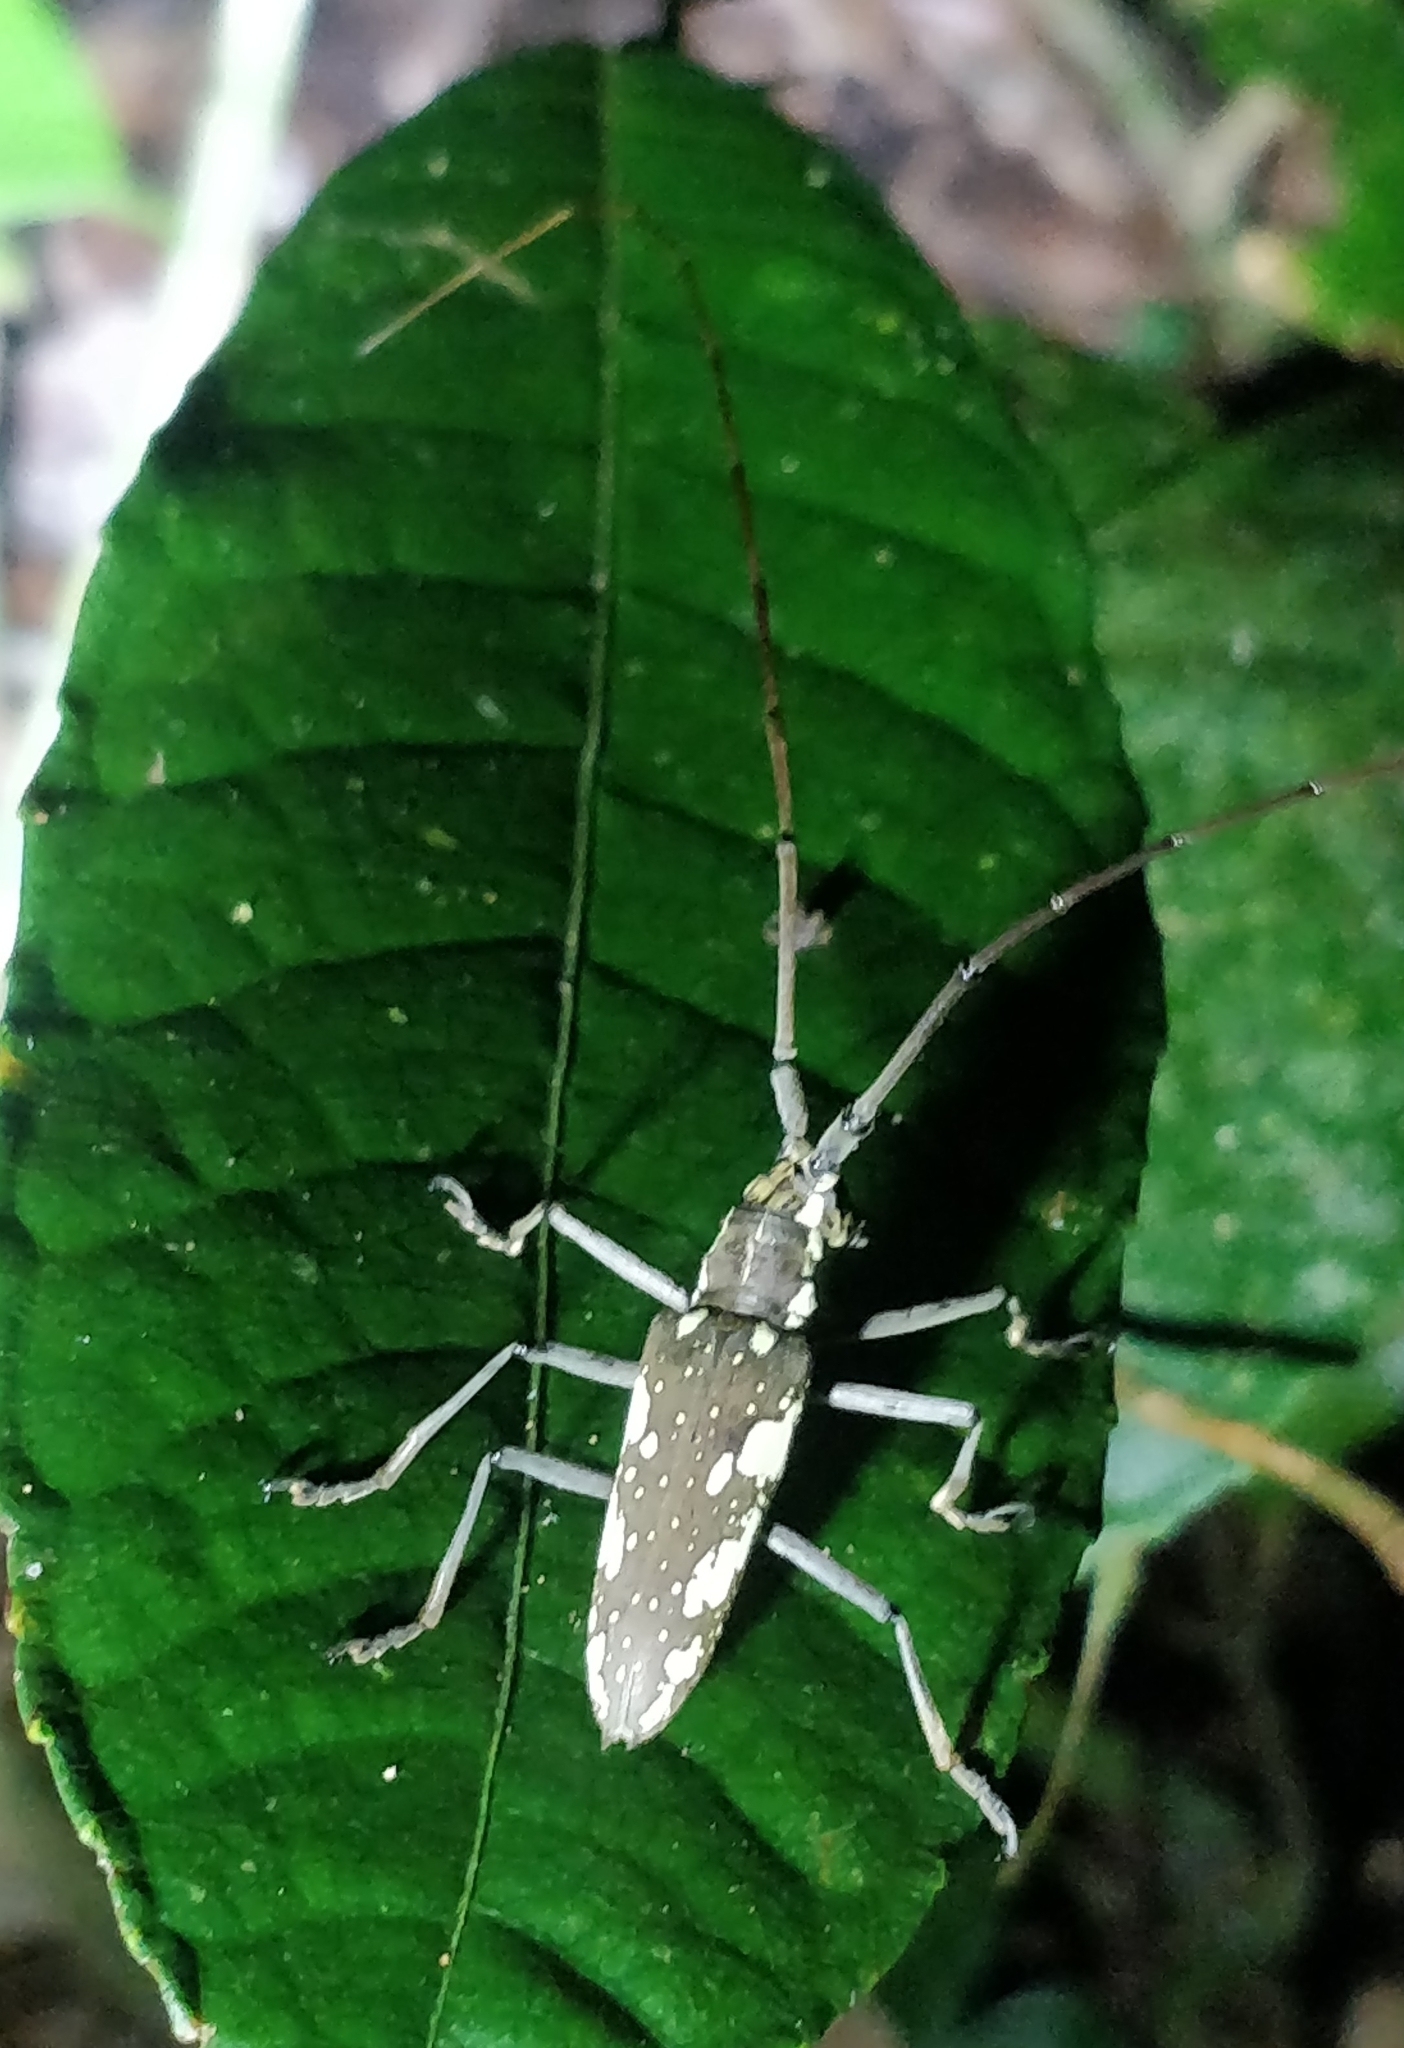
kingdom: Animalia
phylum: Arthropoda
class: Insecta
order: Coleoptera
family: Cerambycidae
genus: Neoptychodes
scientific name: Neoptychodes cretatus
